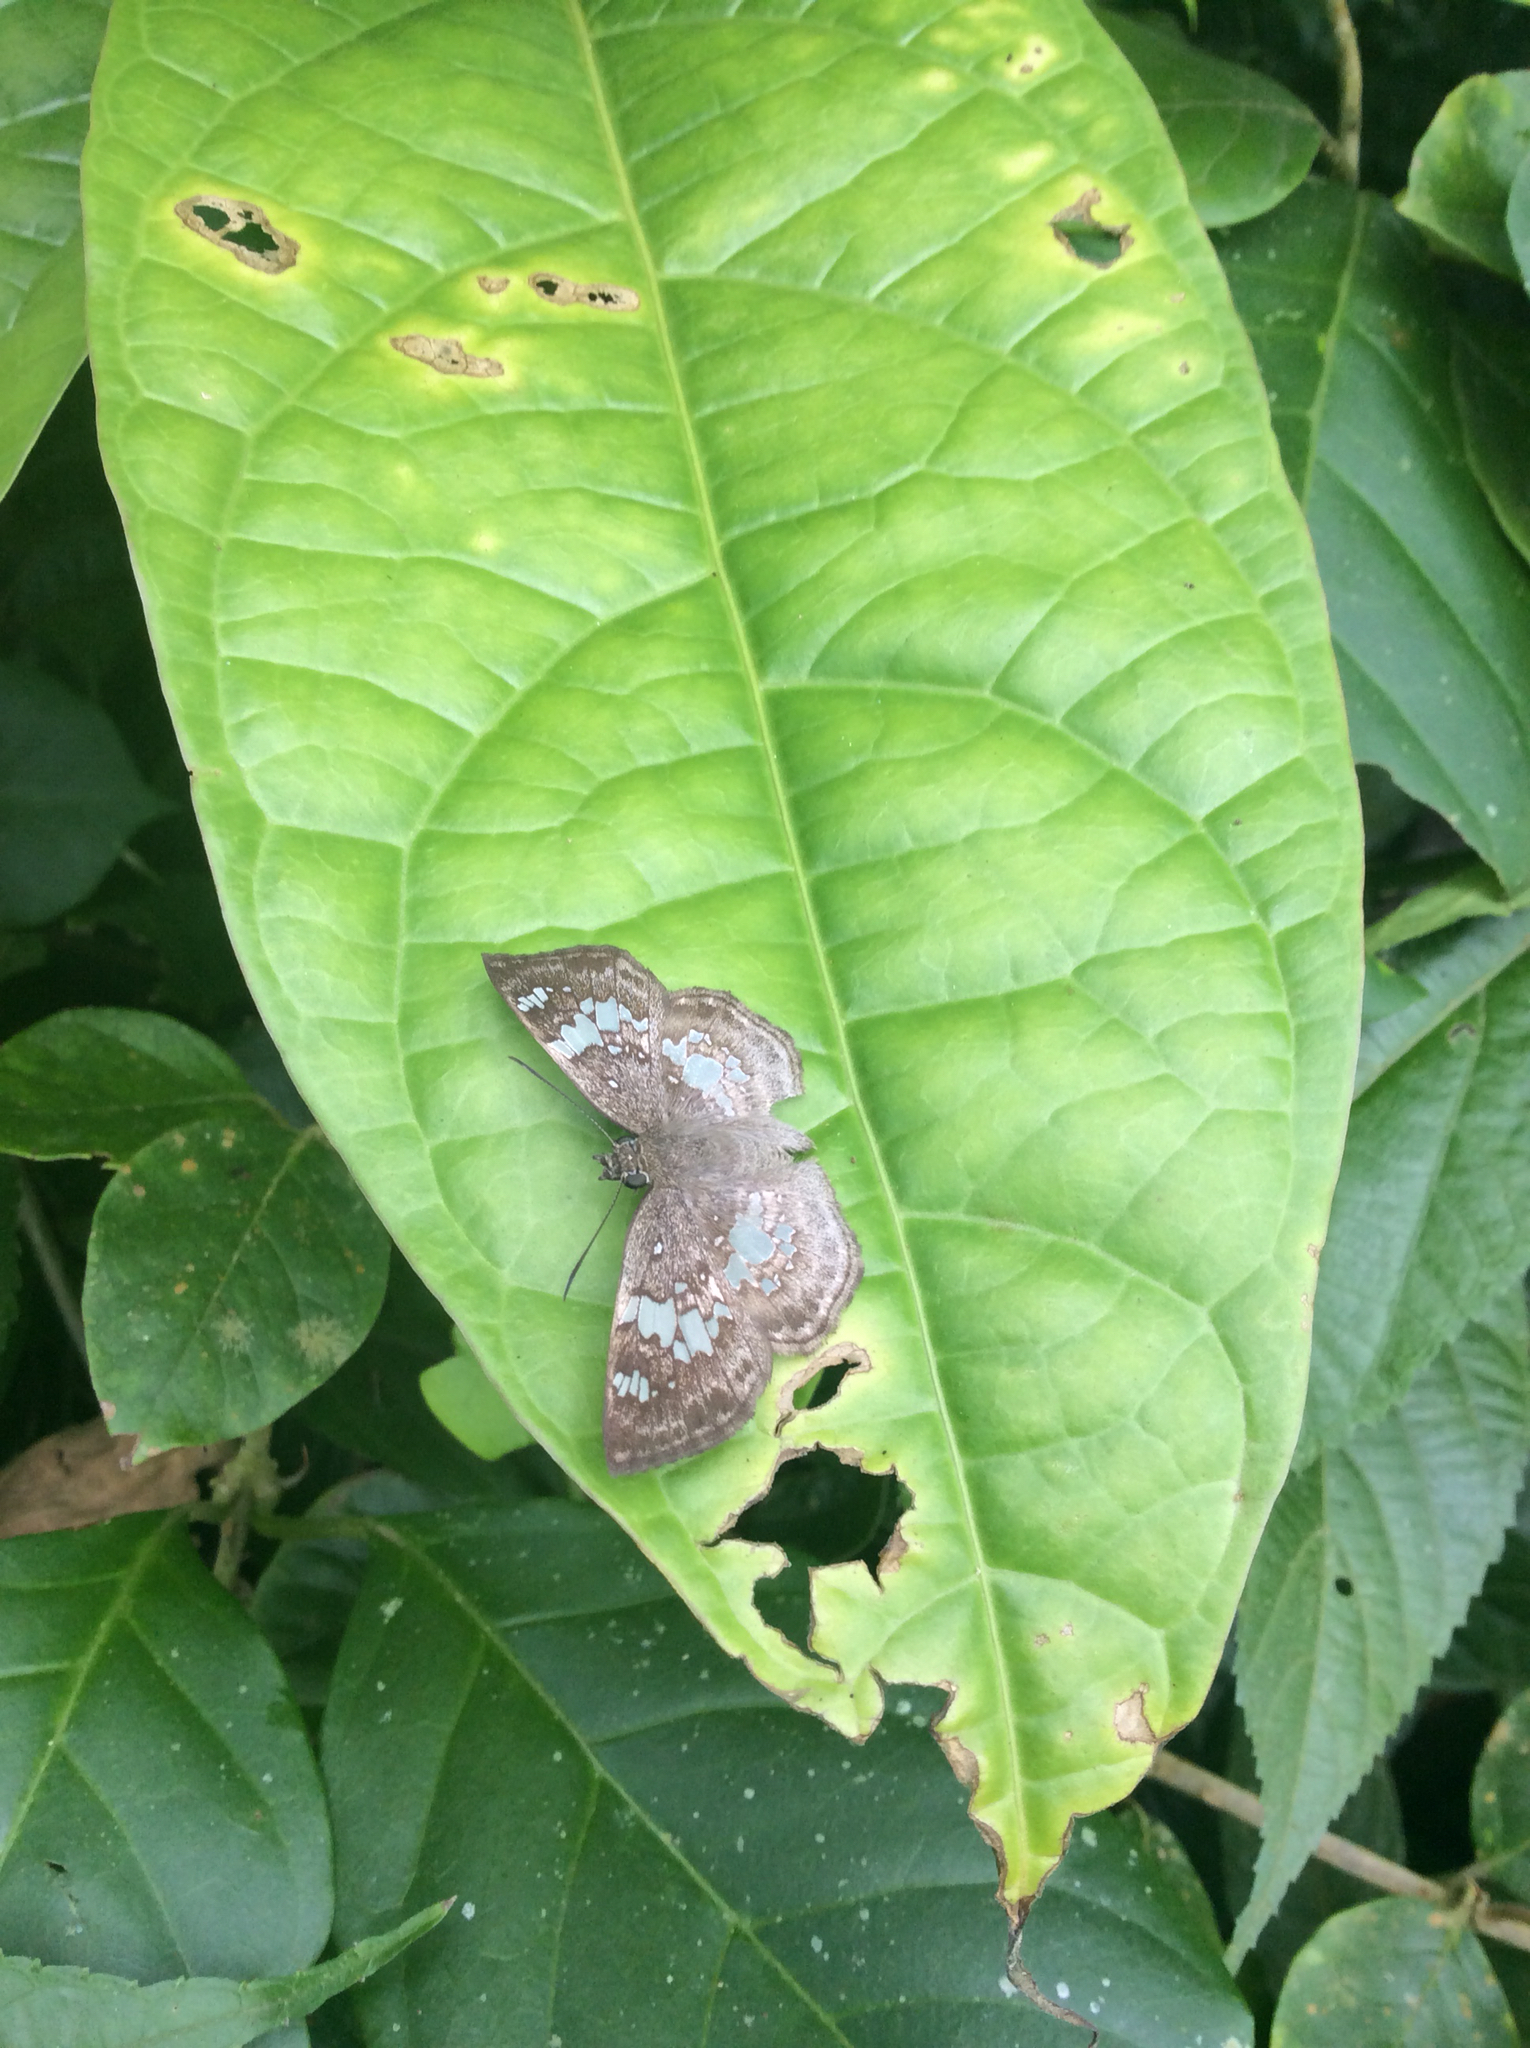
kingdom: Animalia
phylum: Arthropoda
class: Insecta
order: Lepidoptera
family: Hesperiidae
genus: Xenophanes
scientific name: Xenophanes tryxus
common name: Glassy-winged skipper
